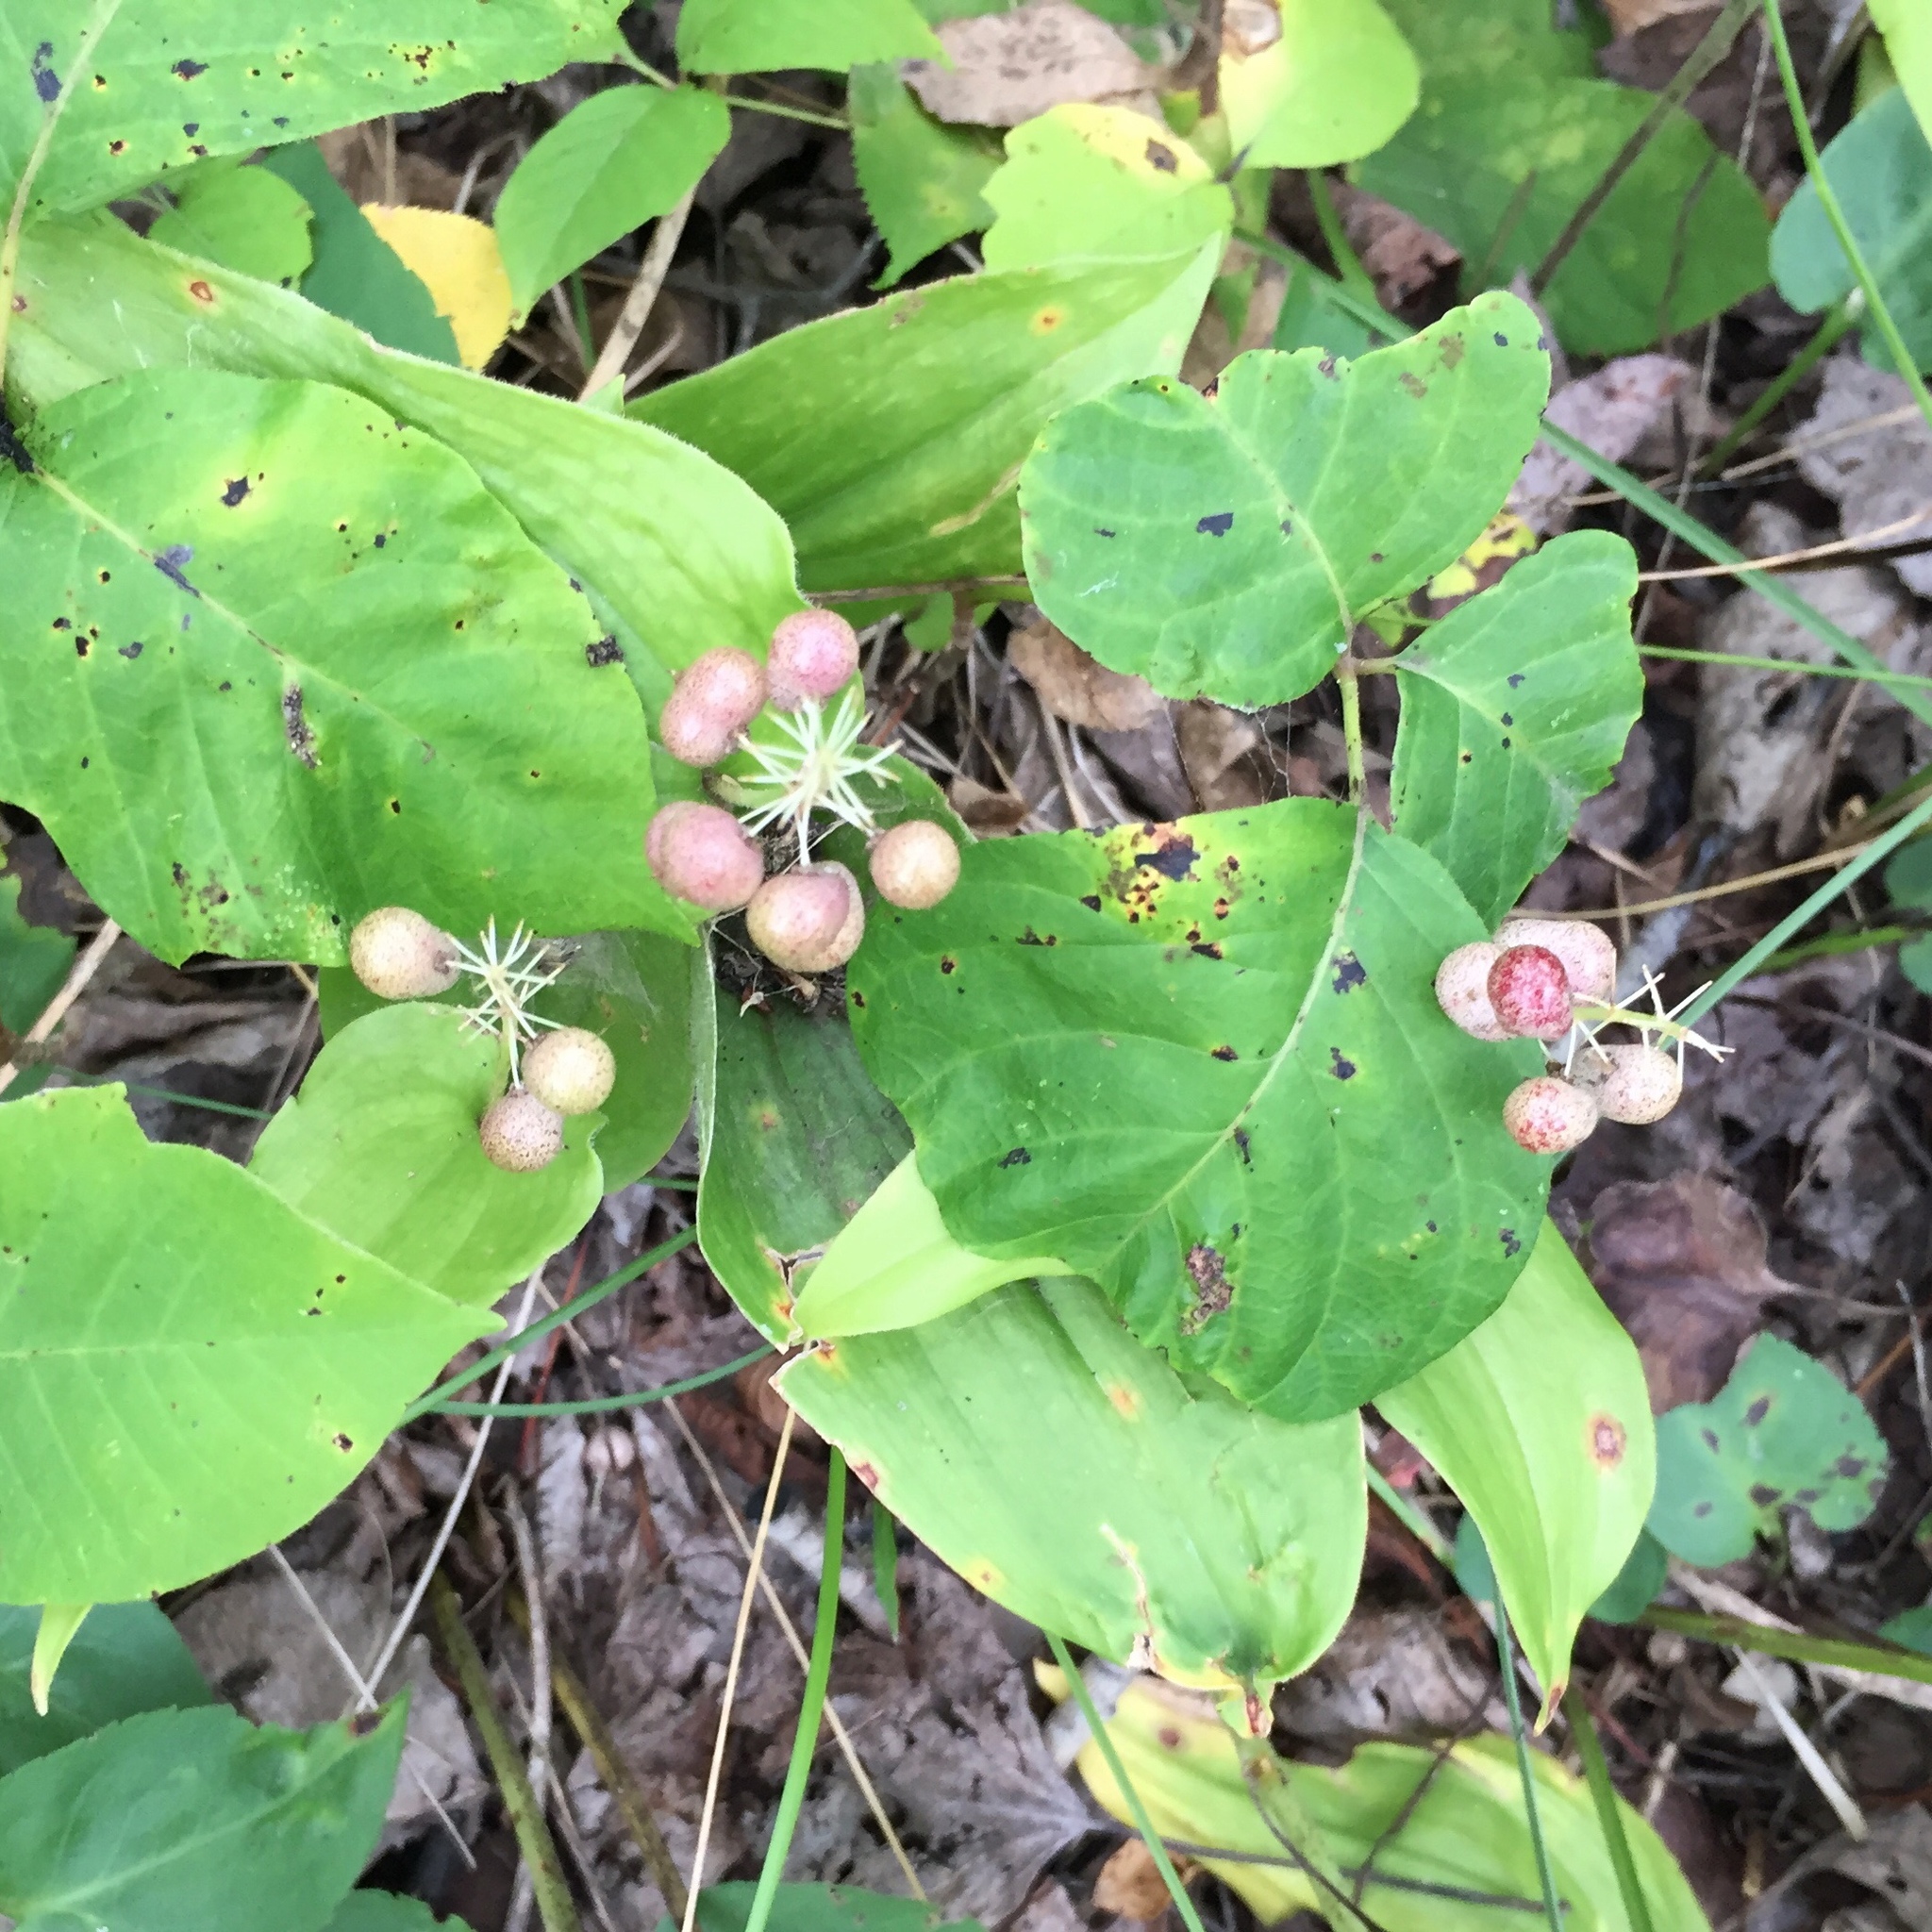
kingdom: Plantae
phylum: Tracheophyta
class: Liliopsida
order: Asparagales
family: Asparagaceae
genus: Maianthemum
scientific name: Maianthemum canadense
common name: False lily-of-the-valley
